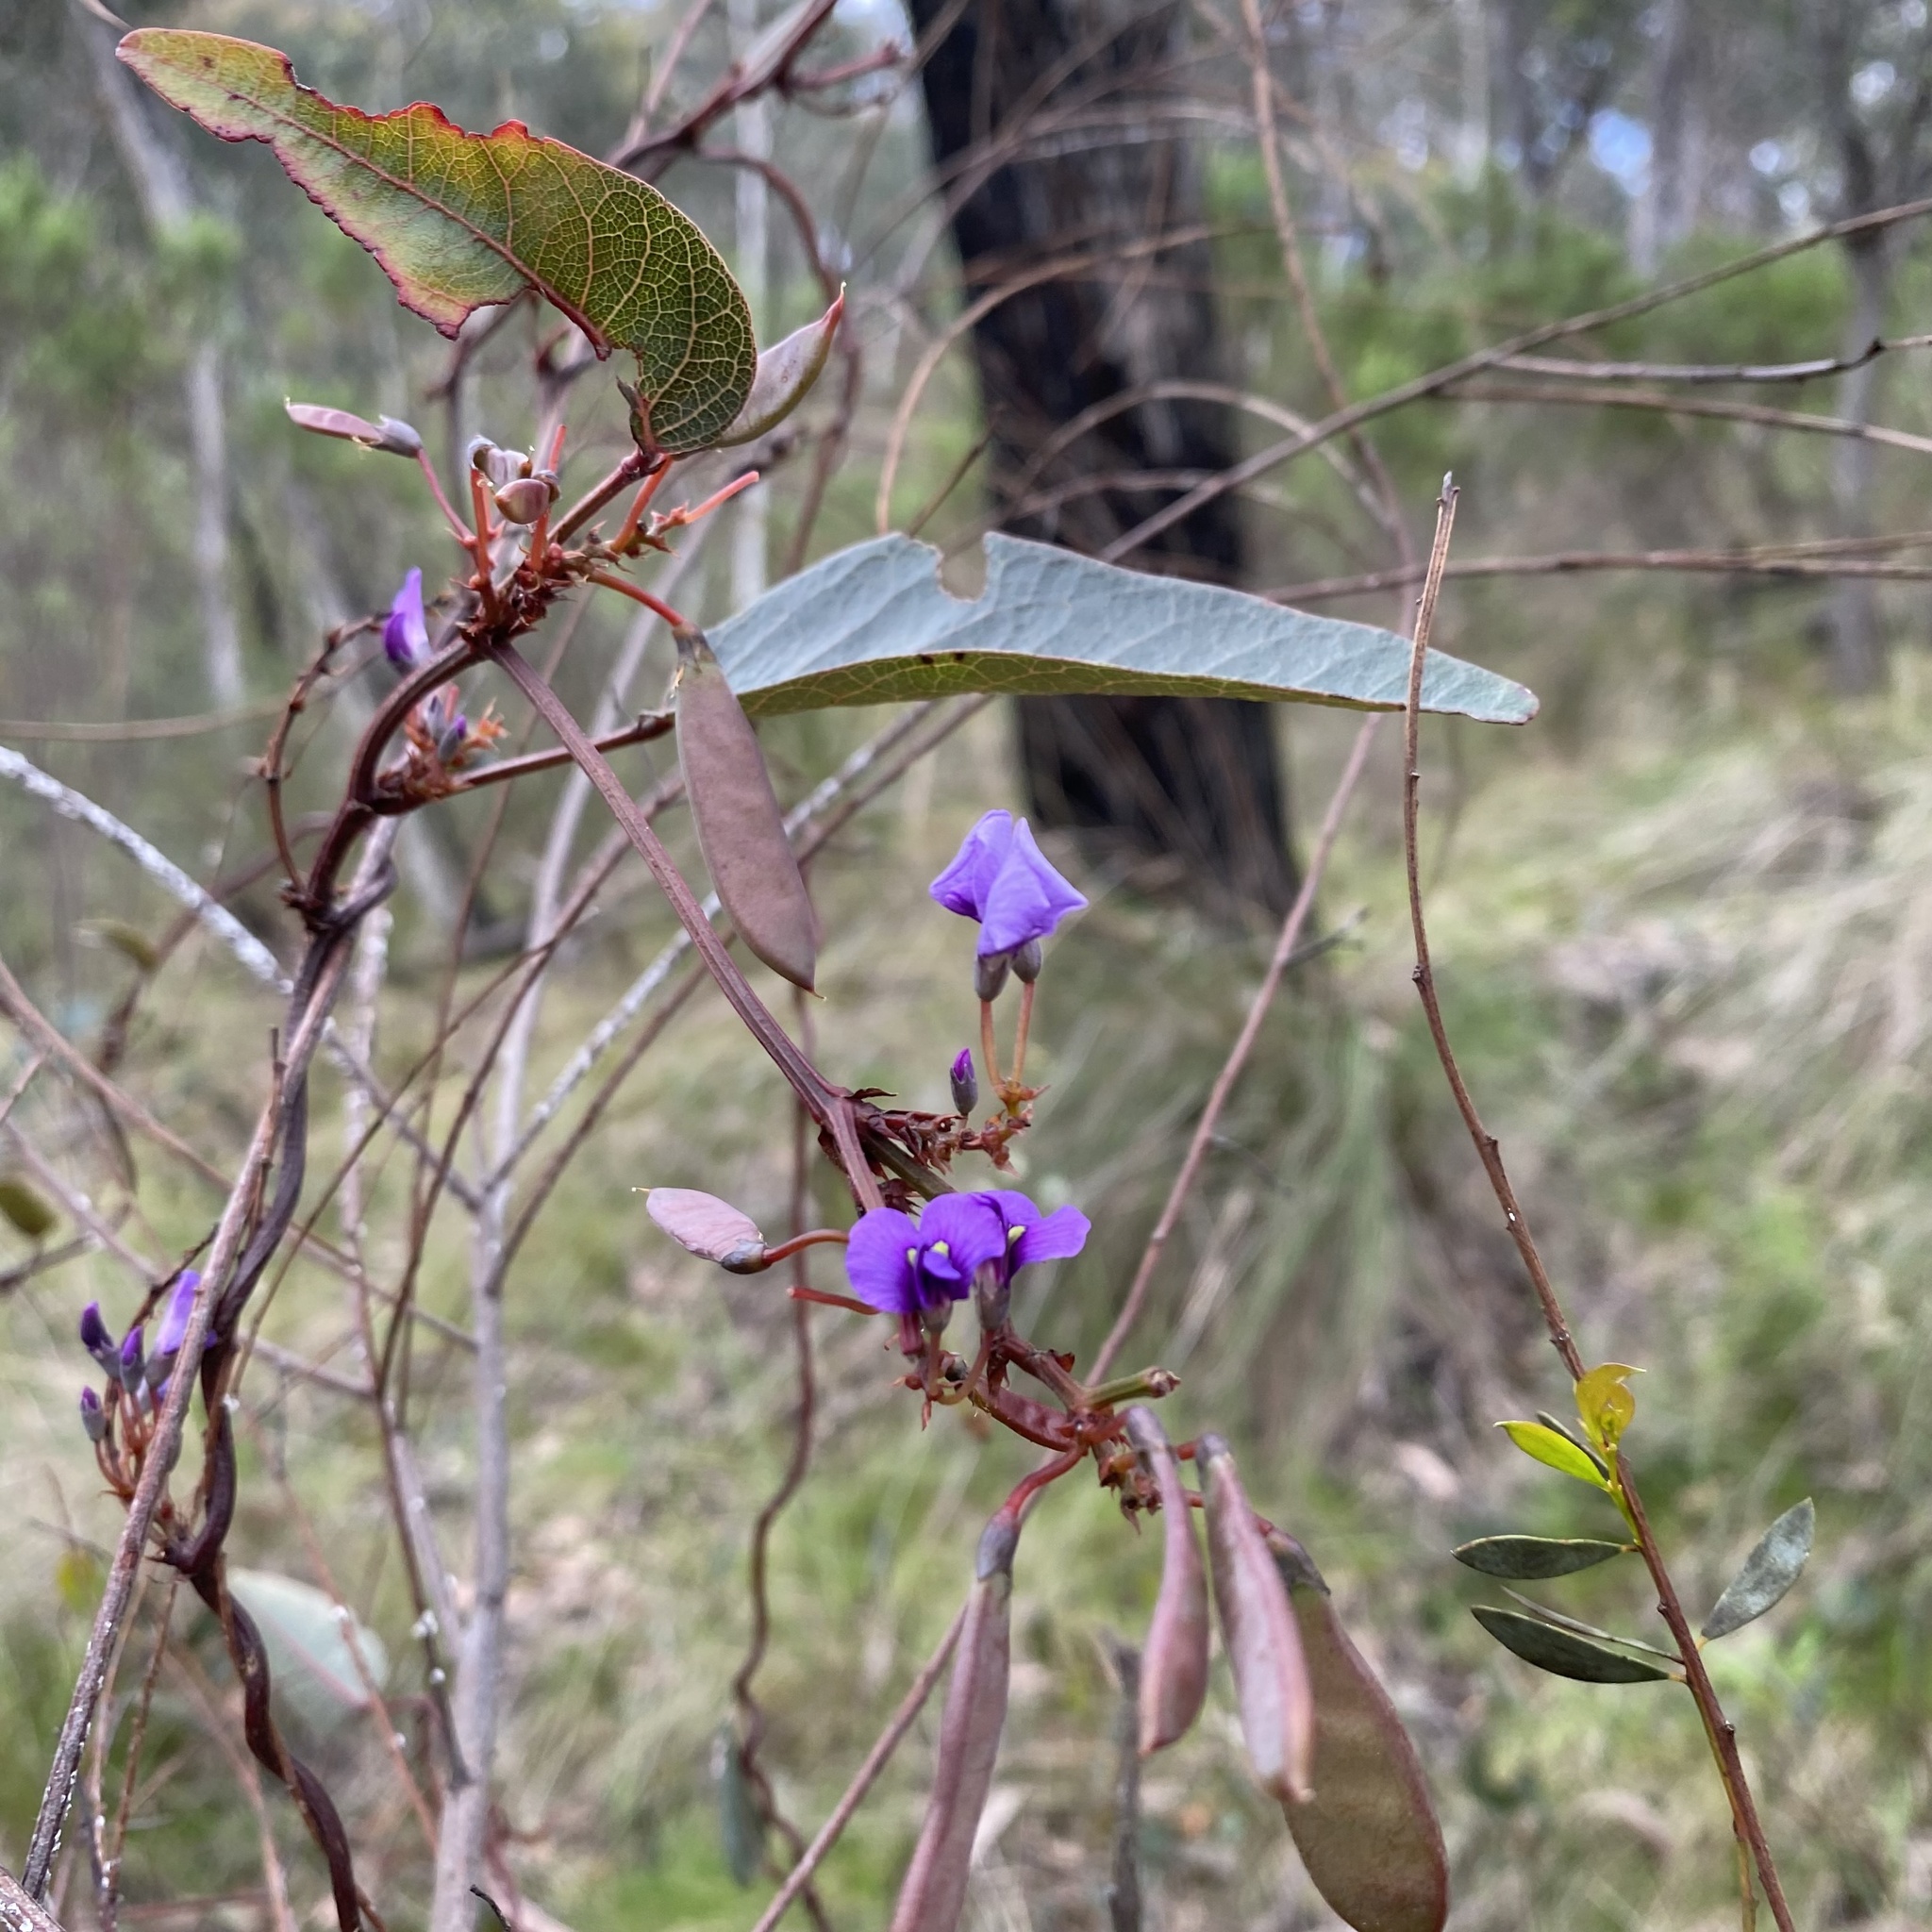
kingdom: Plantae
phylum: Tracheophyta
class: Magnoliopsida
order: Fabales
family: Fabaceae
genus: Hardenbergia
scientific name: Hardenbergia violacea
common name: Coral-pea
